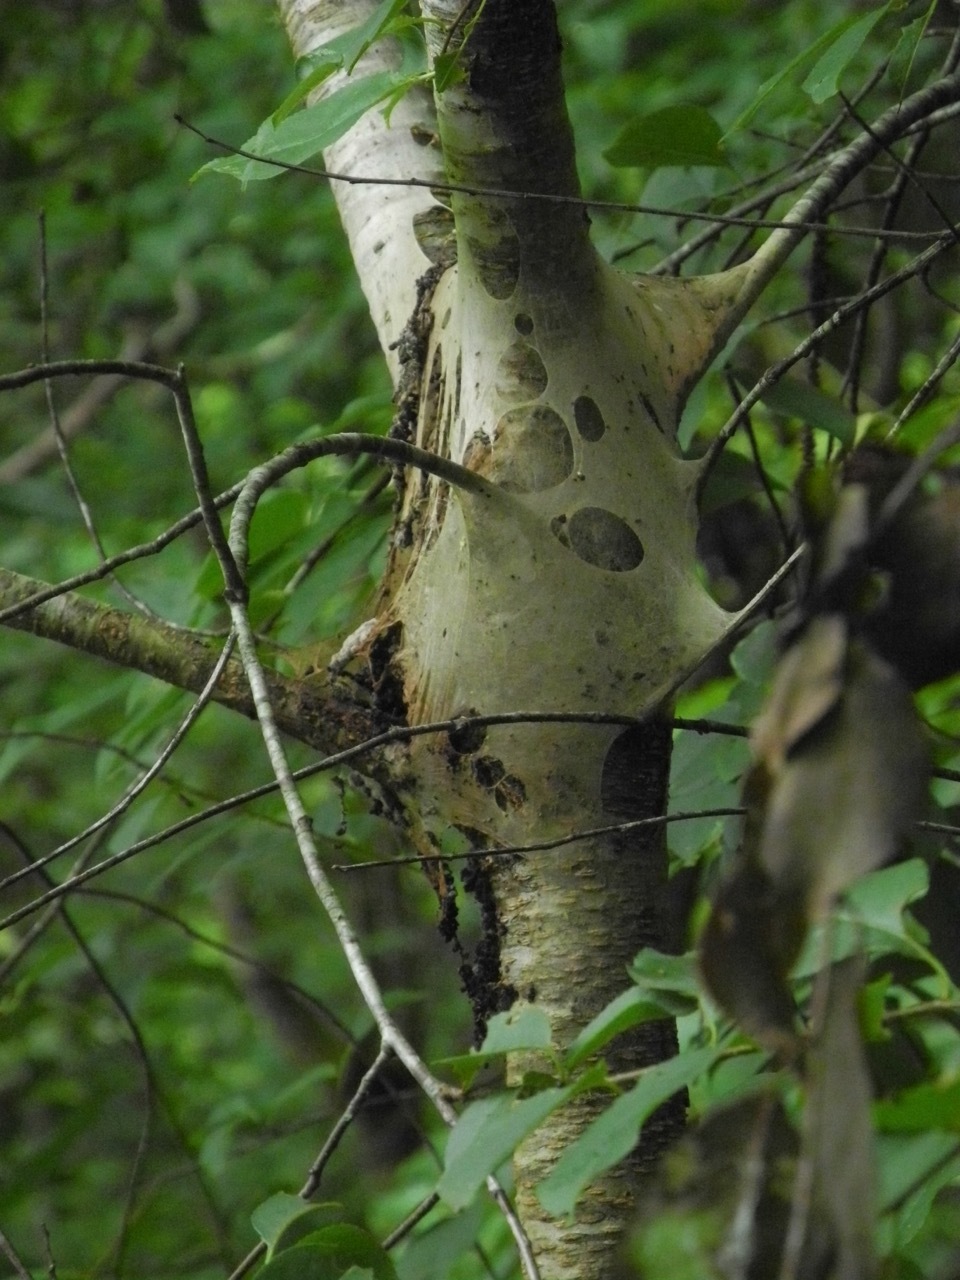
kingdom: Plantae
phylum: Tracheophyta
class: Magnoliopsida
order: Rosales
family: Rosaceae
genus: Prunus
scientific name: Prunus serotina
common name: Black cherry
